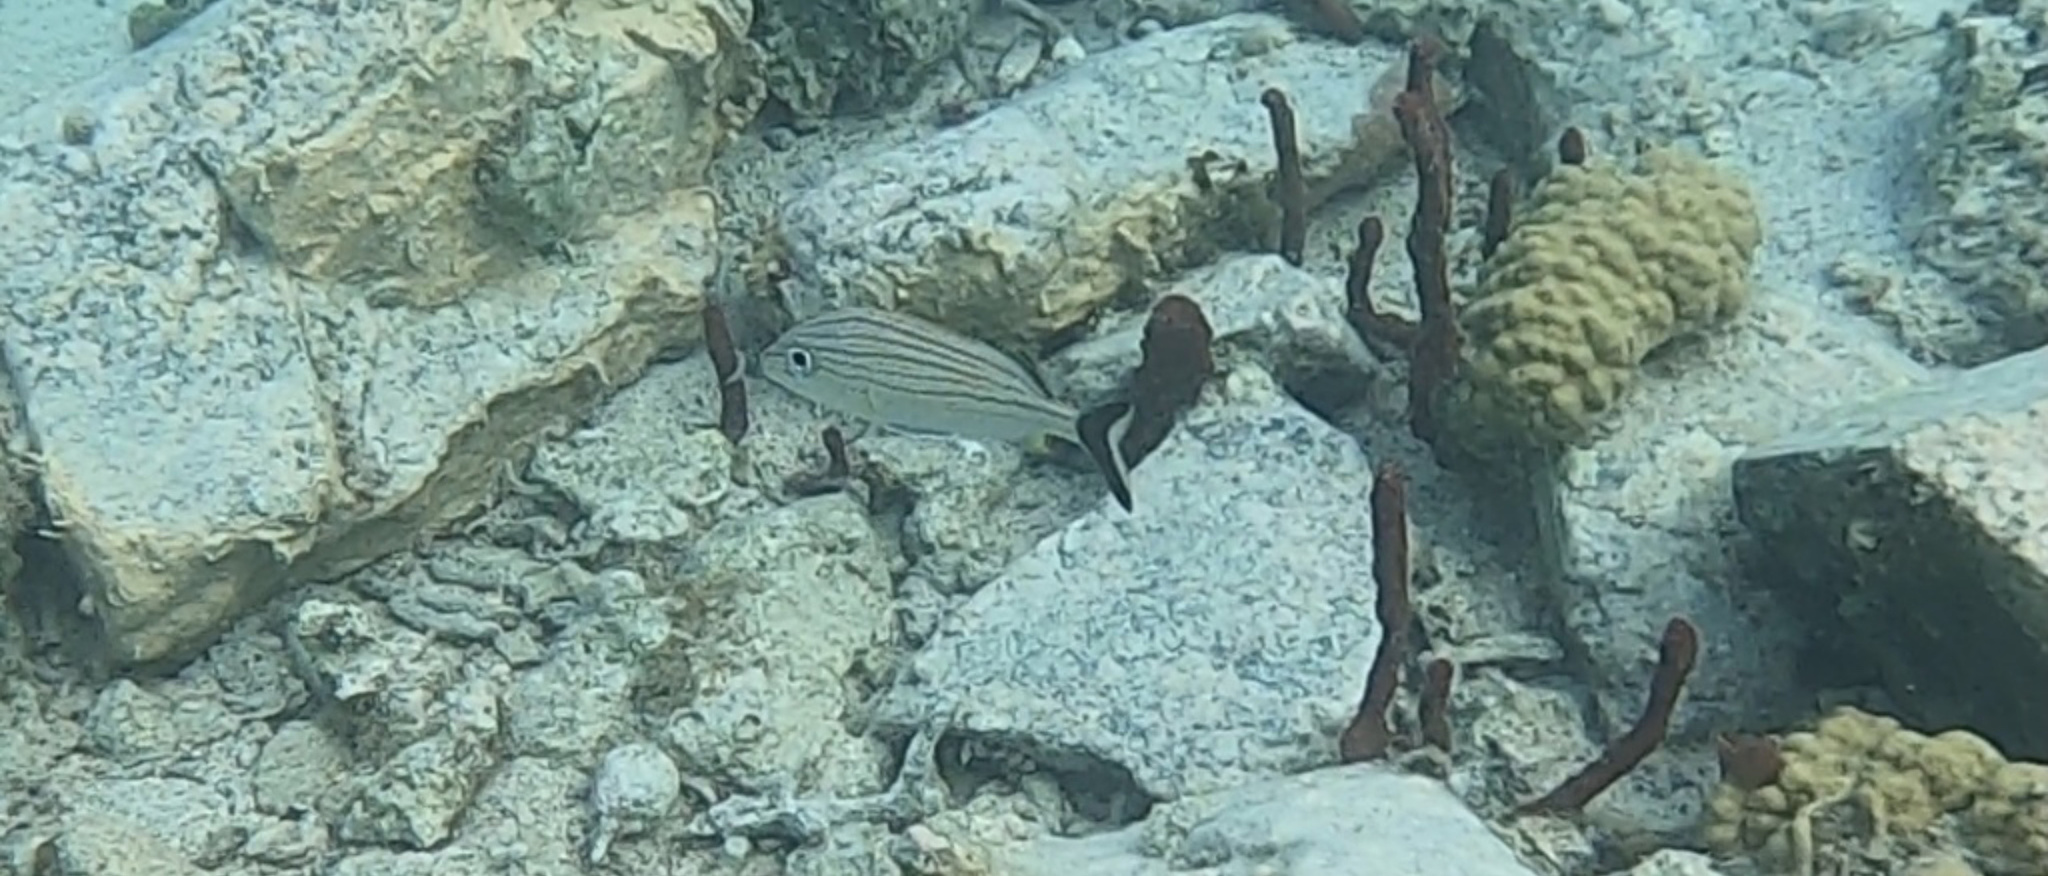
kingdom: Animalia
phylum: Chordata
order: Perciformes
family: Haemulidae
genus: Haemulon
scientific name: Haemulon carbonarium
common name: Caesar grunt
